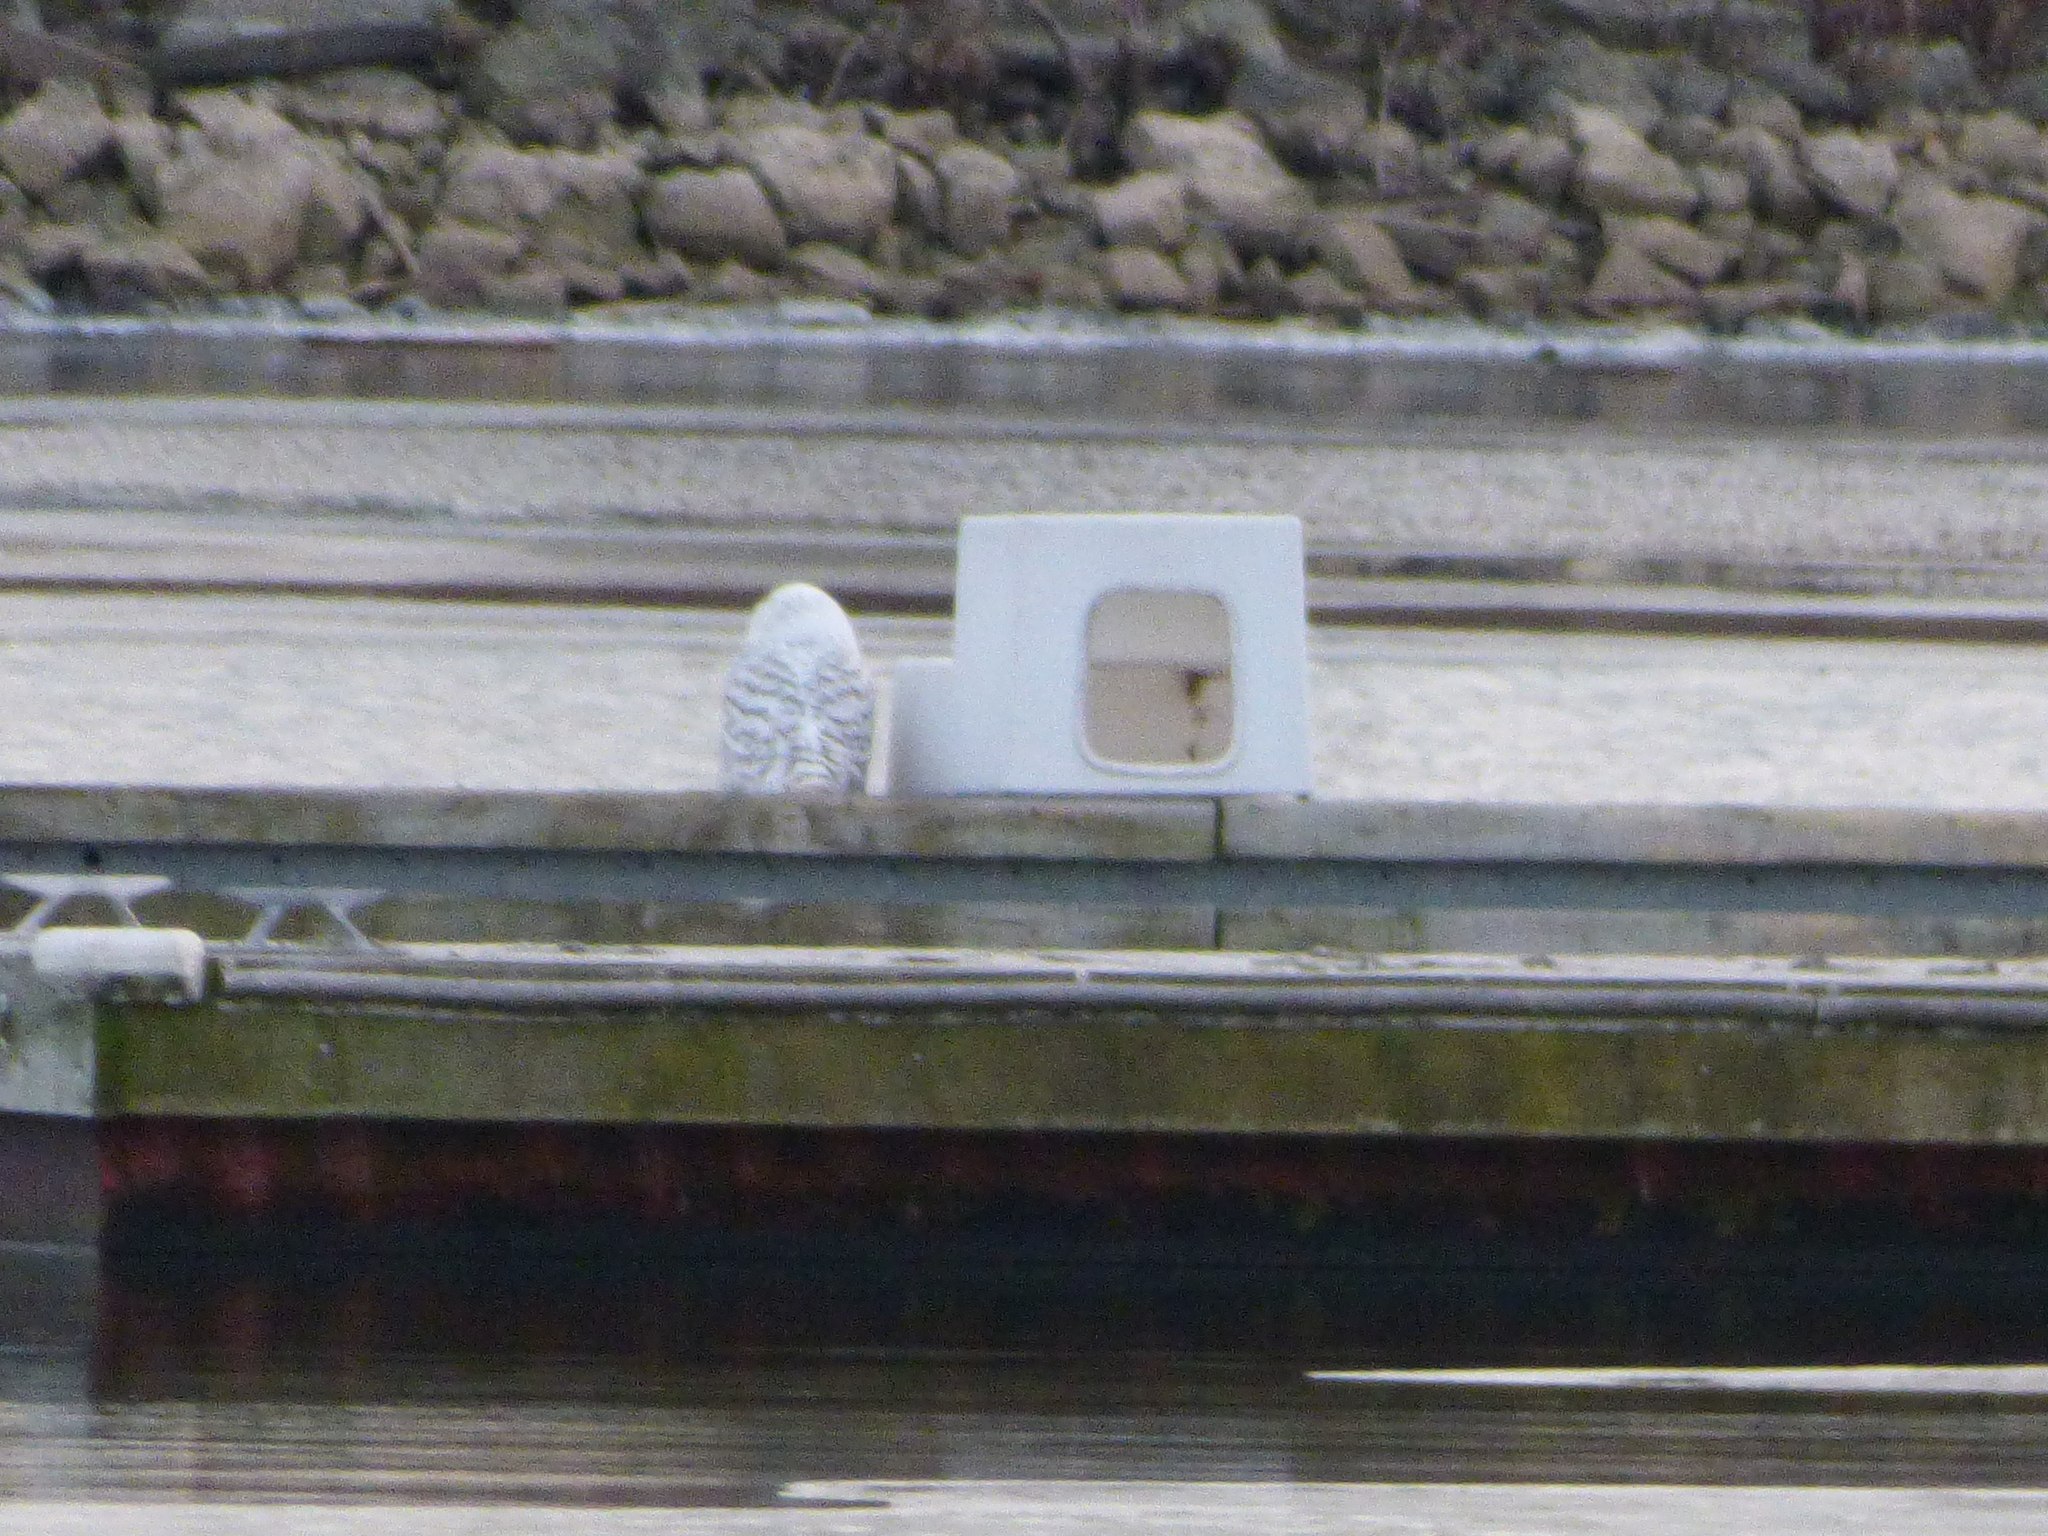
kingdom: Animalia
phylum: Chordata
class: Aves
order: Strigiformes
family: Strigidae
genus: Bubo
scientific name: Bubo scandiacus
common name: Snowy owl
